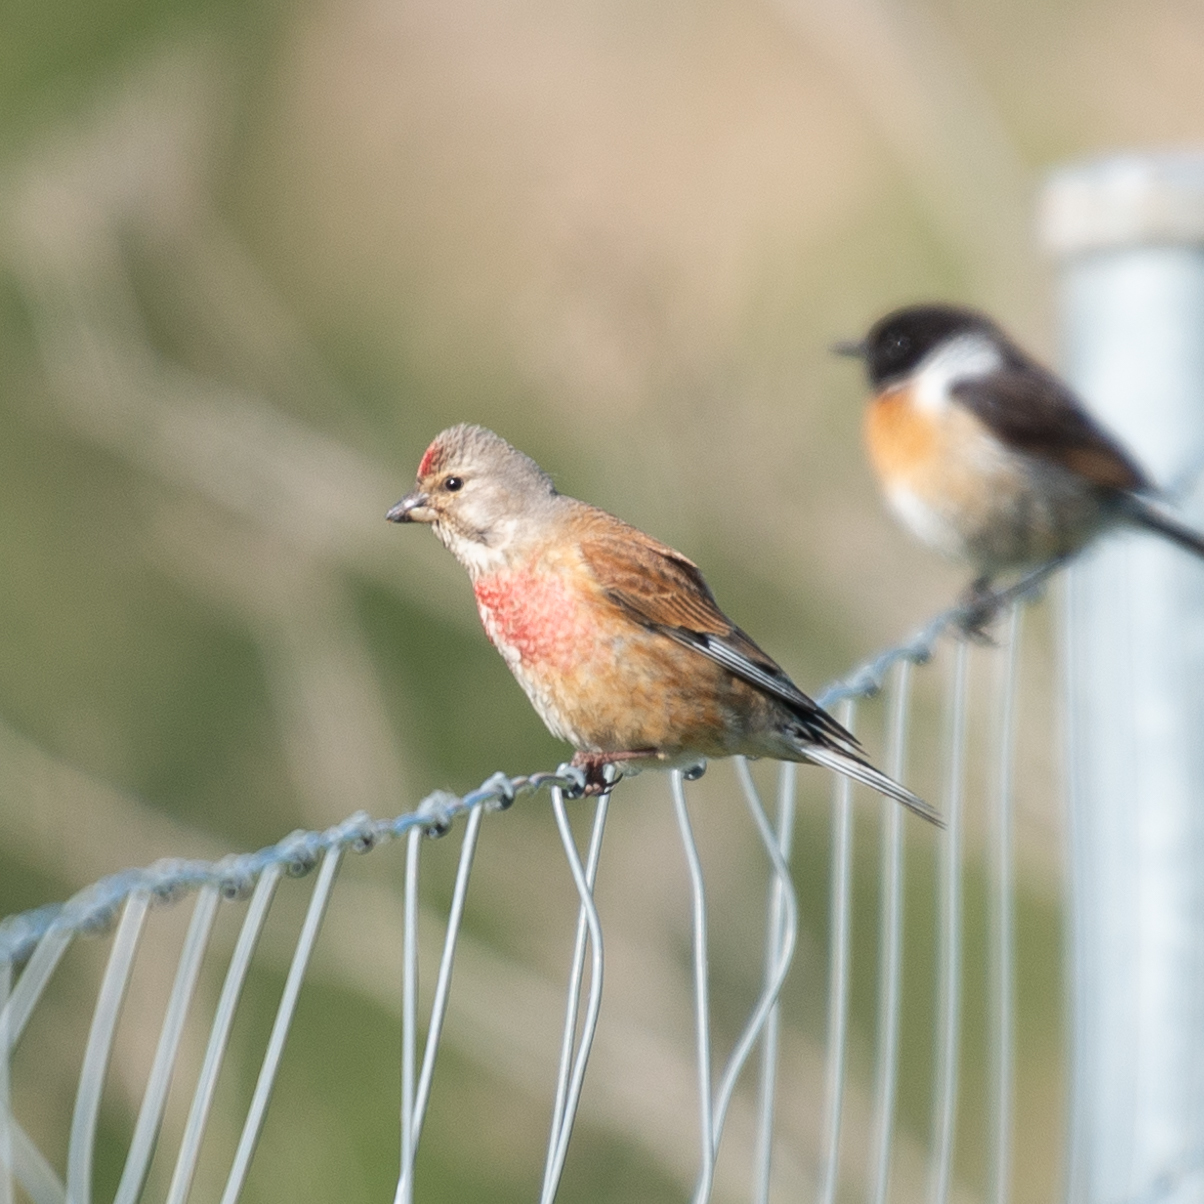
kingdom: Animalia
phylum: Chordata
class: Aves
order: Passeriformes
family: Fringillidae
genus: Linaria
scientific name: Linaria cannabina
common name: Common linnet
